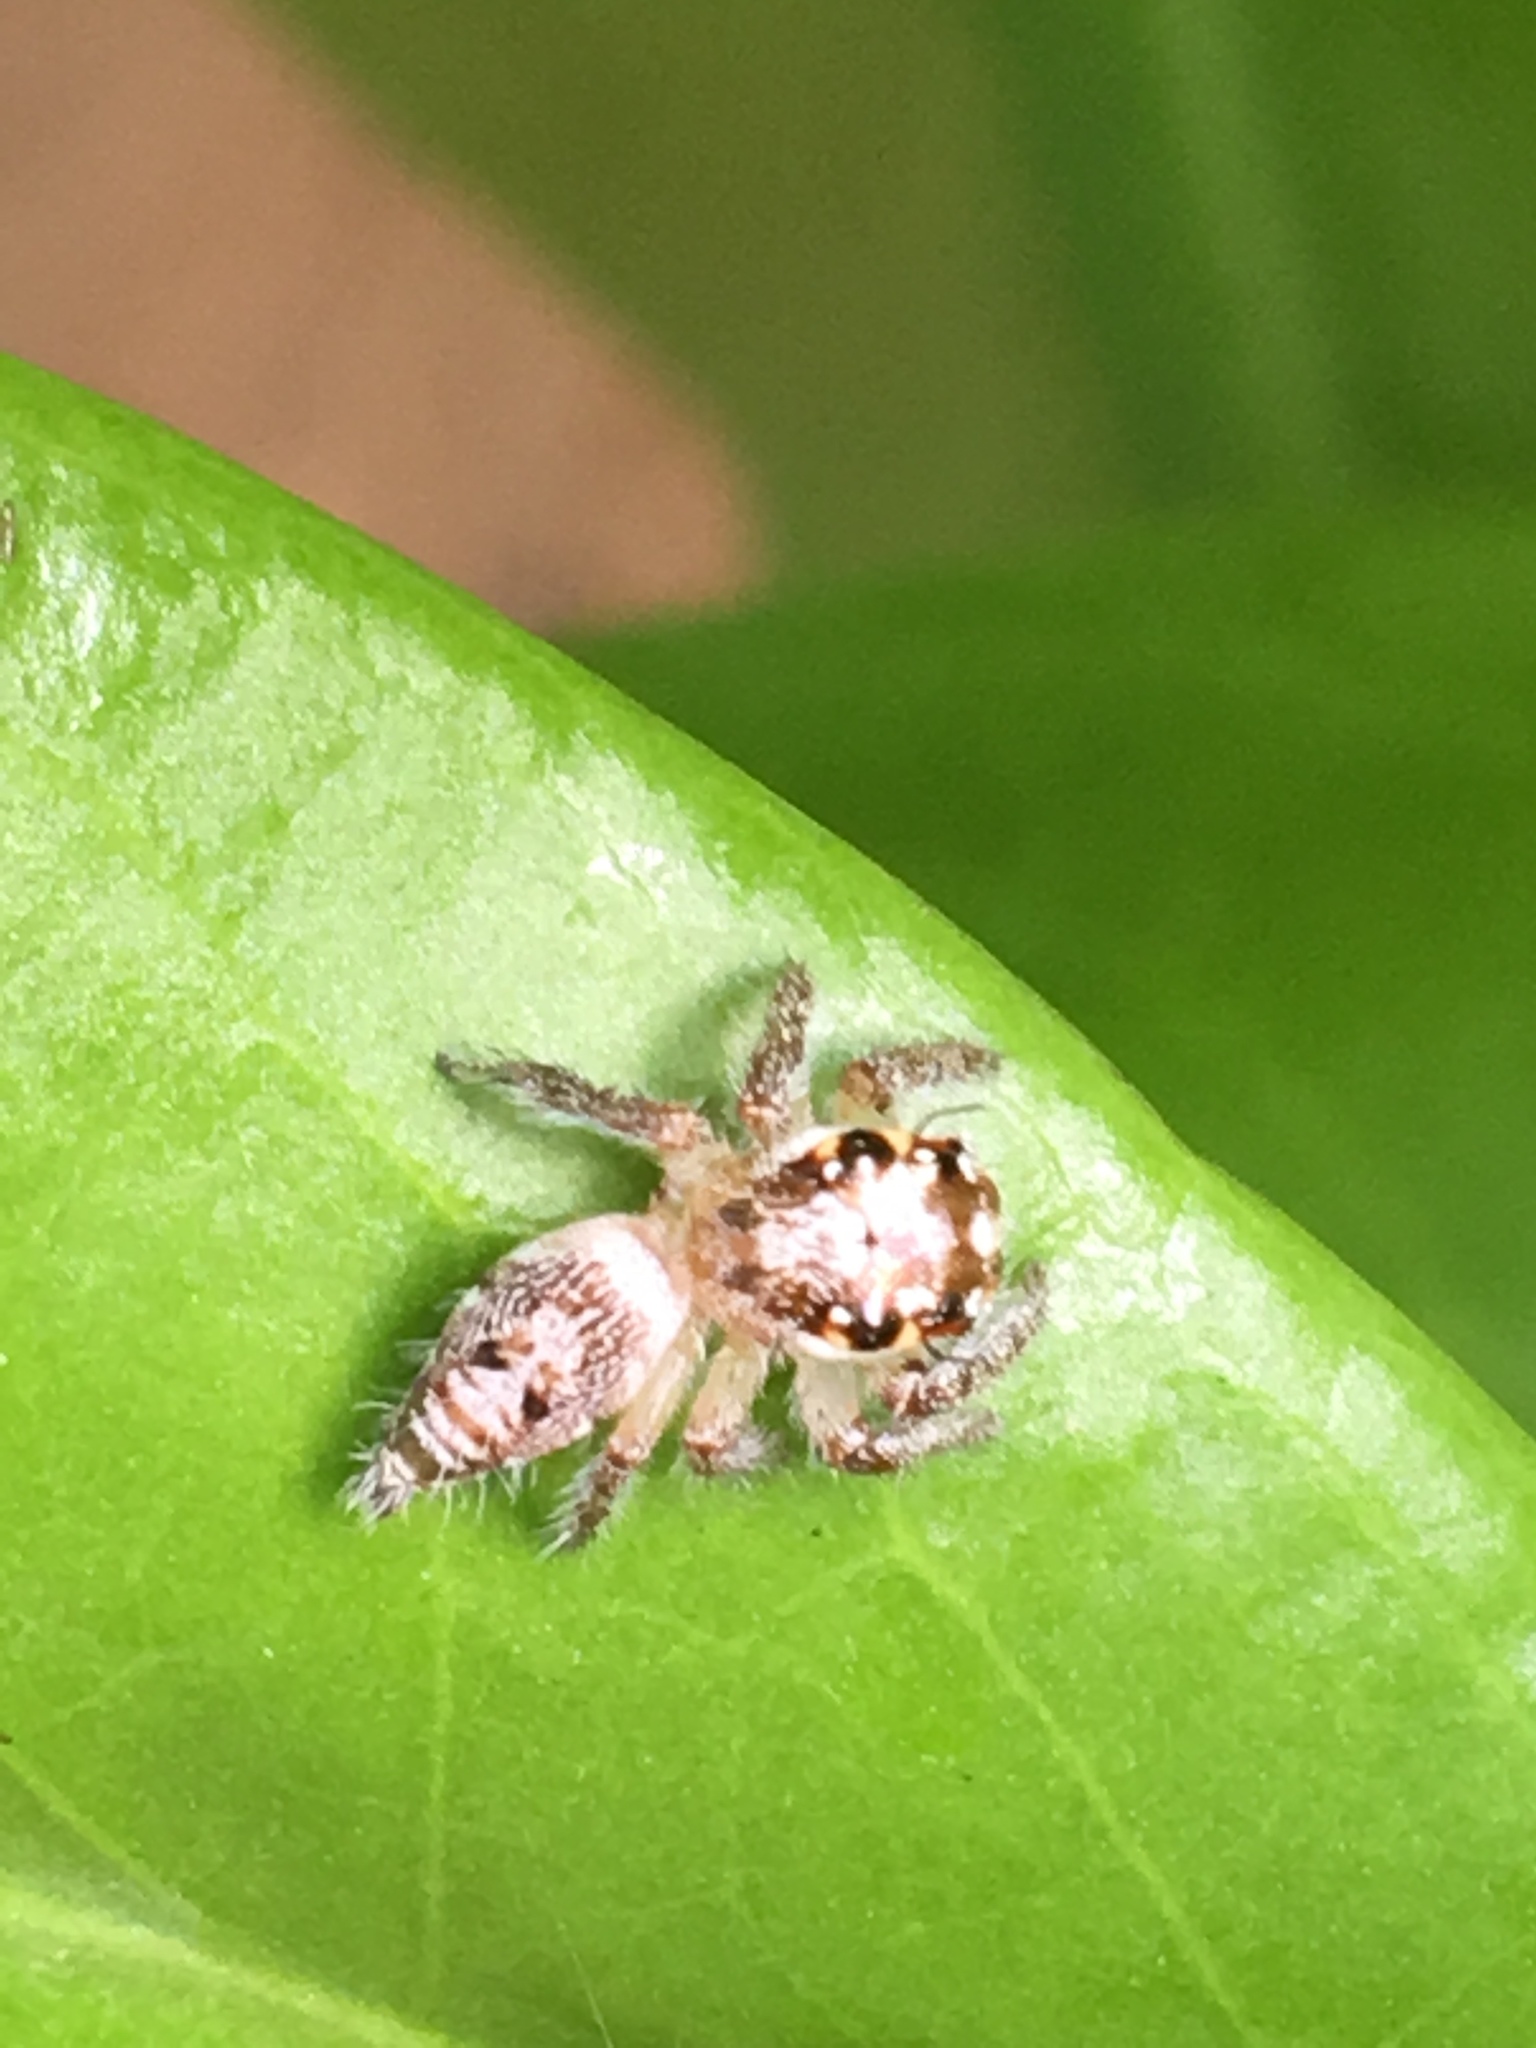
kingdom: Animalia
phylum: Arthropoda
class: Arachnida
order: Araneae
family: Salticidae
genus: Hyllus
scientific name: Hyllus semicupreus
